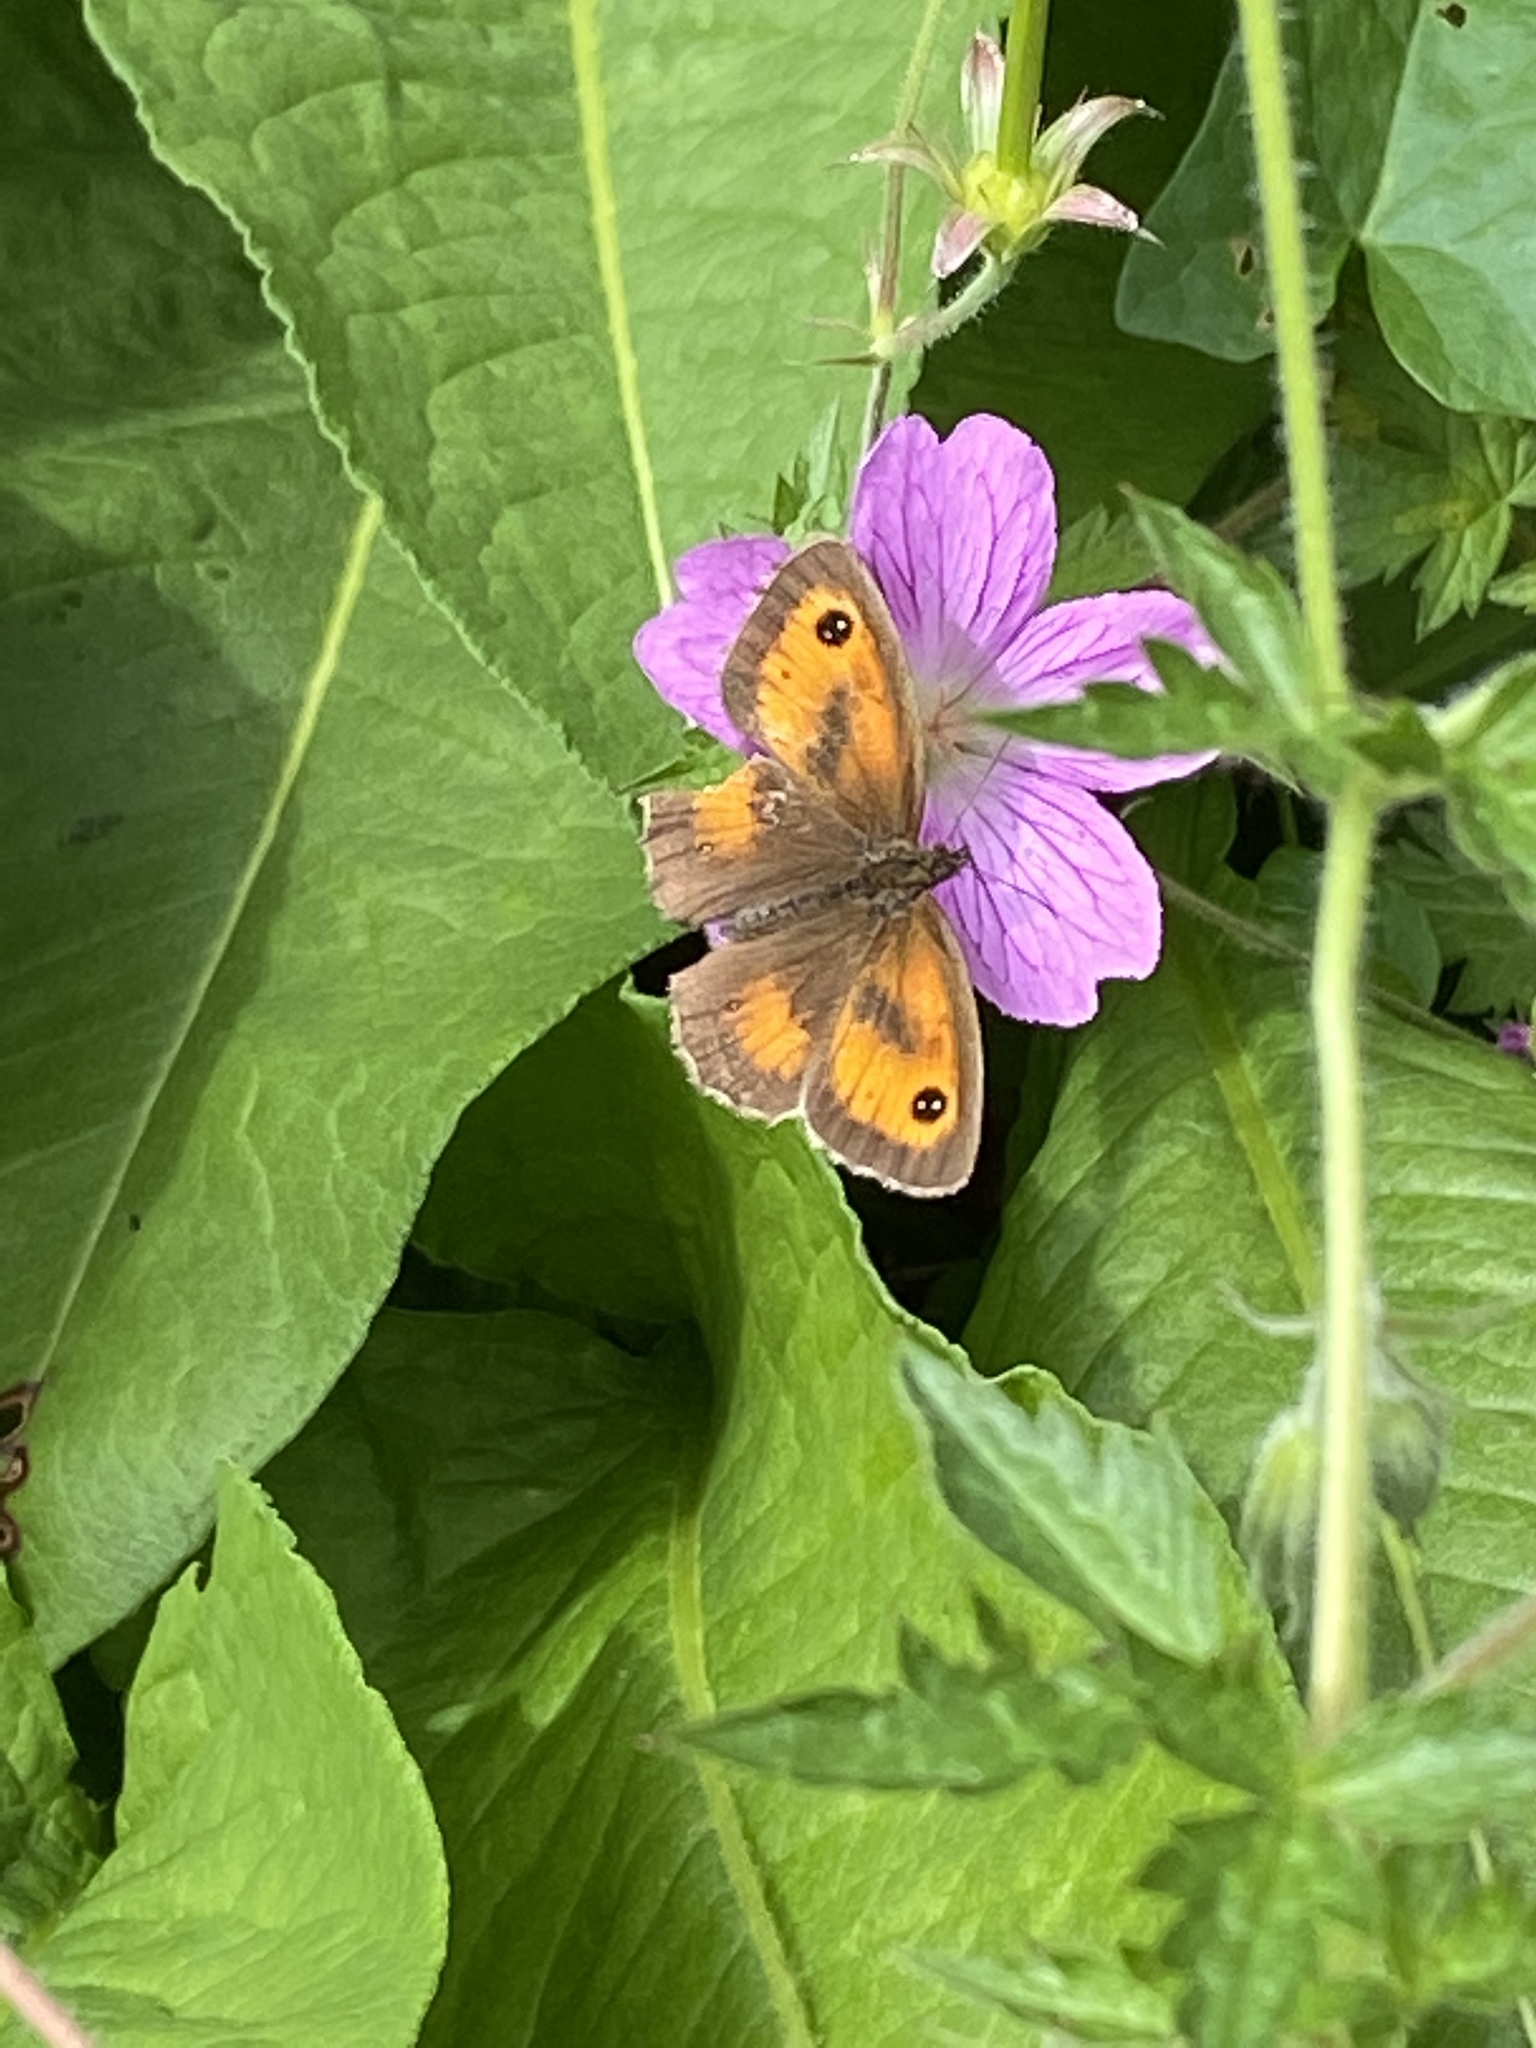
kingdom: Animalia
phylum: Arthropoda
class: Insecta
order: Lepidoptera
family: Nymphalidae
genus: Pyronia
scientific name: Pyronia tithonus
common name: Gatekeeper
